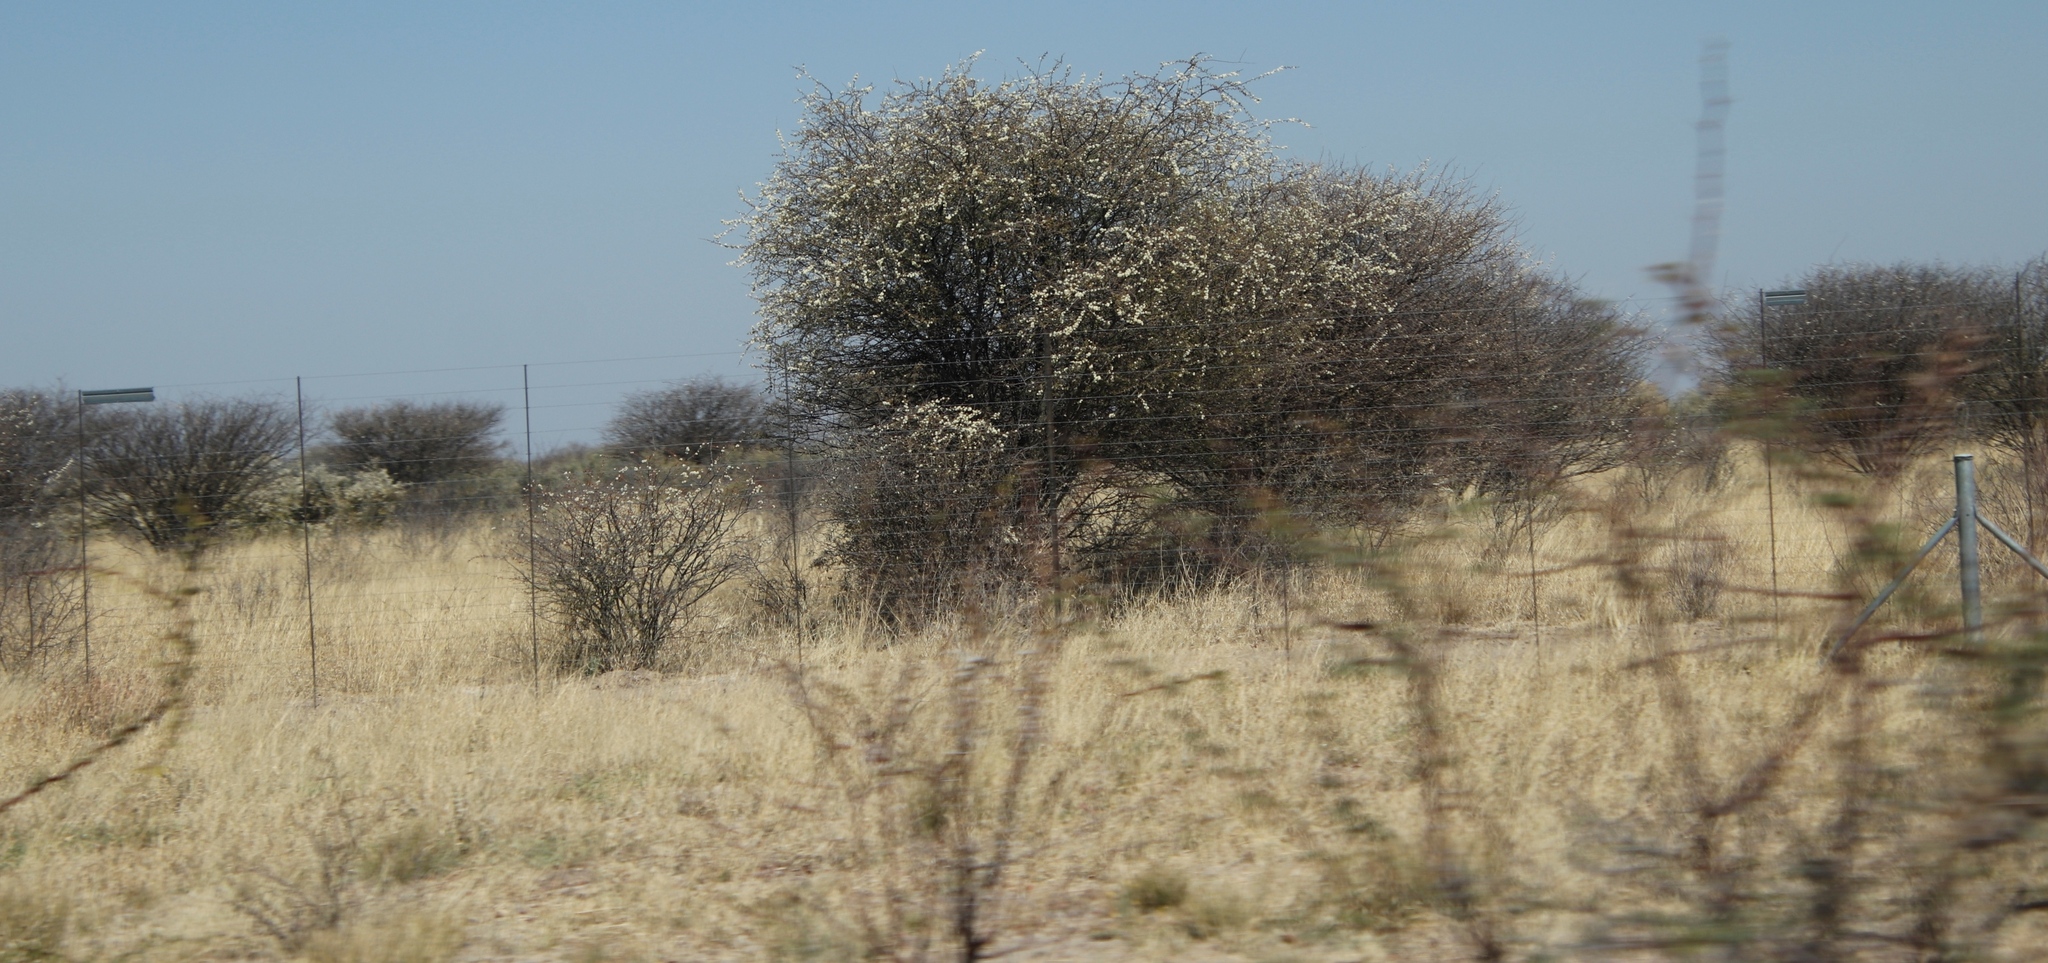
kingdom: Plantae
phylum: Tracheophyta
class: Magnoliopsida
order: Fabales
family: Fabaceae
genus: Senegalia
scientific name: Senegalia mellifera
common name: Hookthorn
